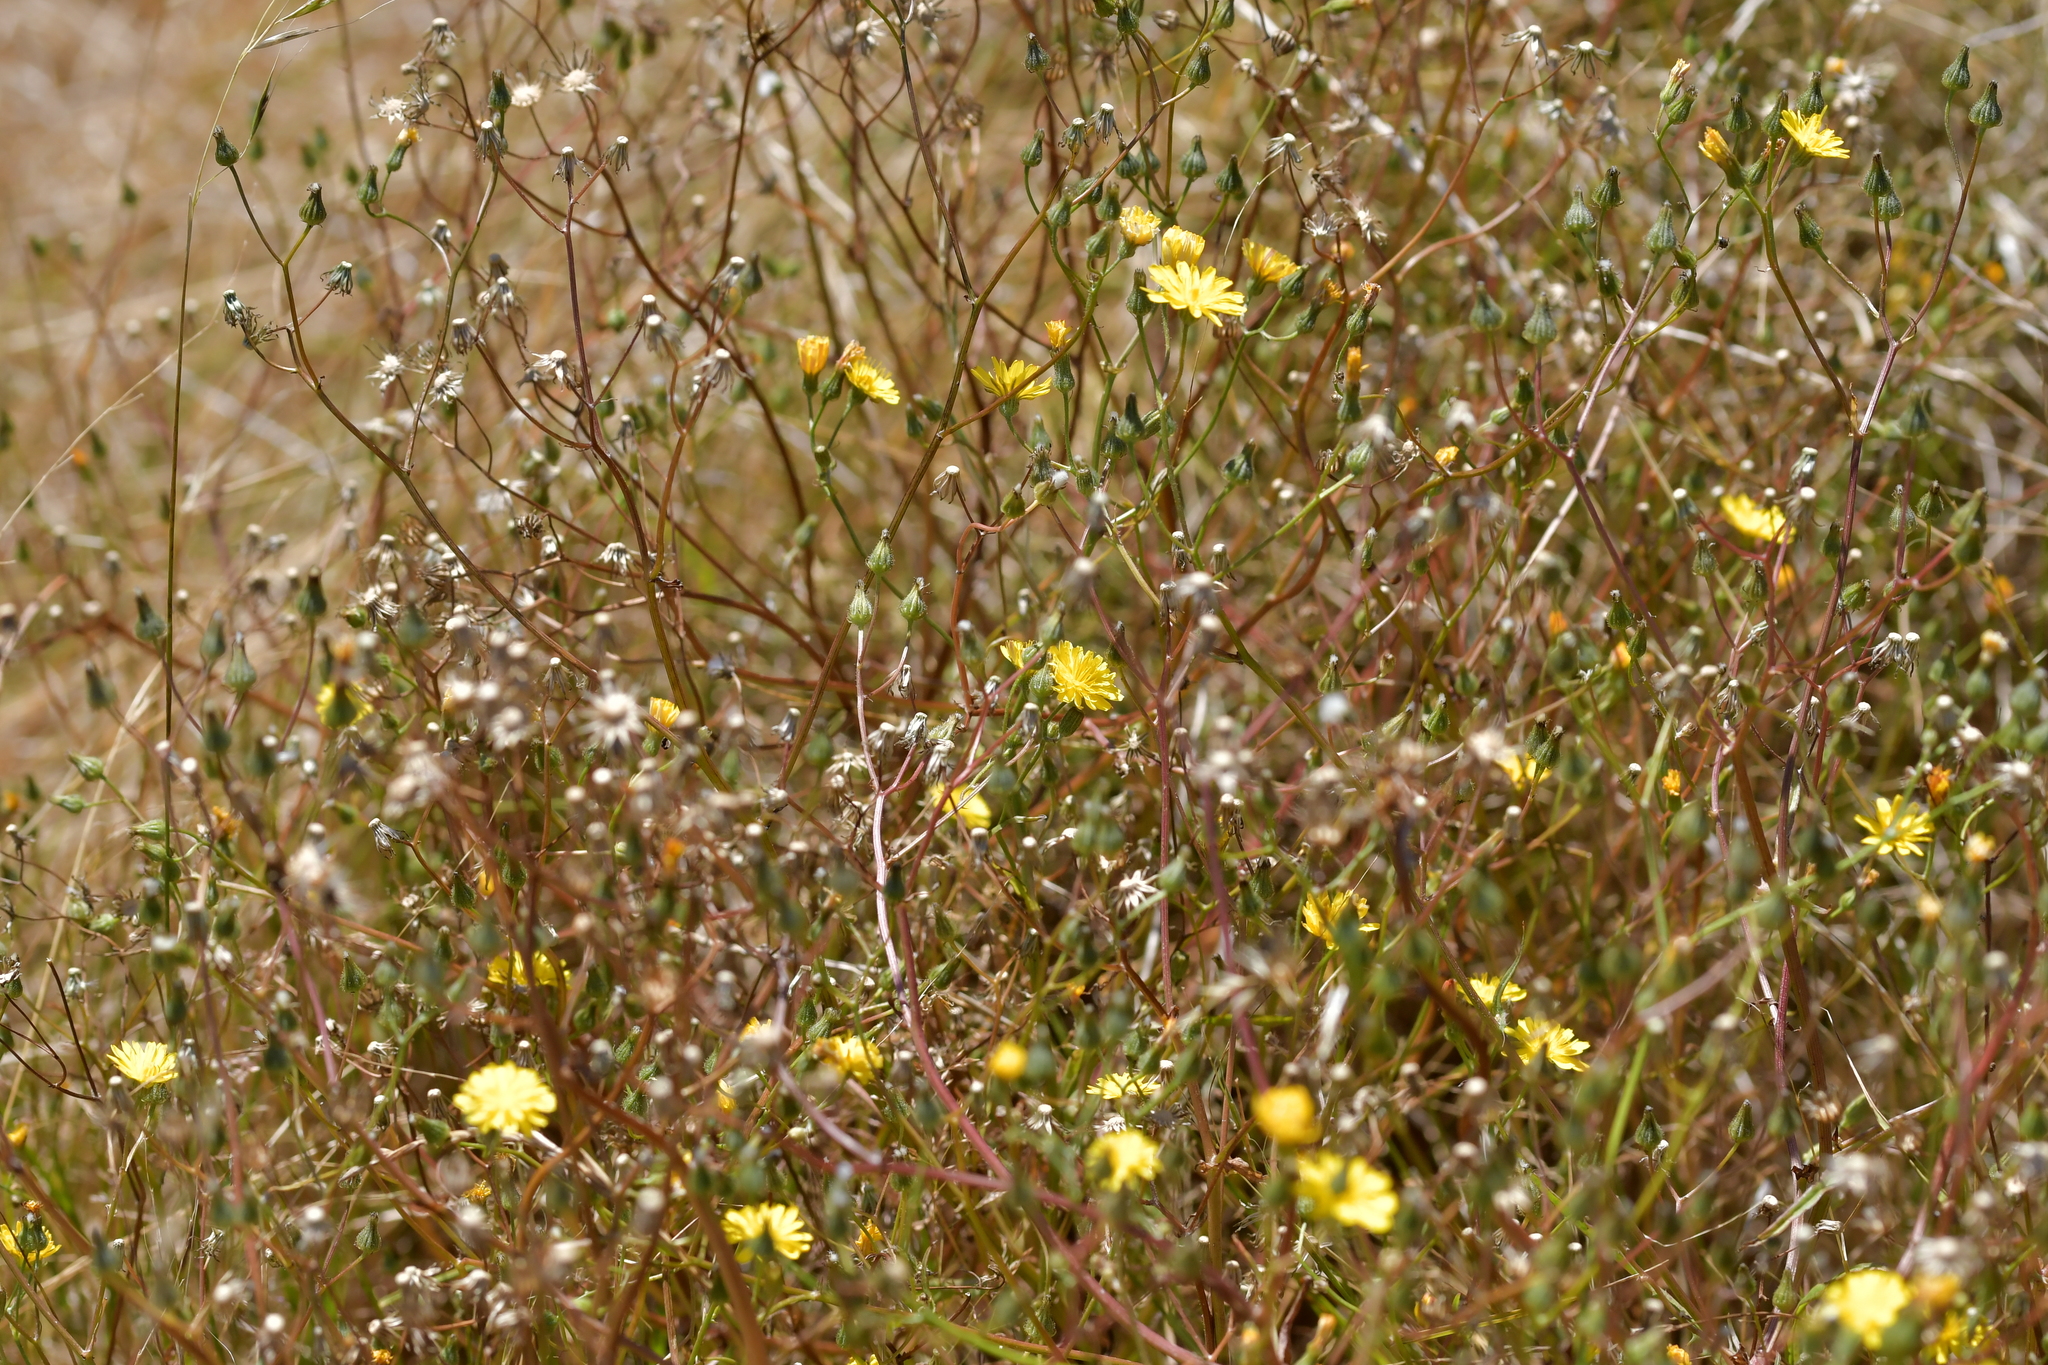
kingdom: Plantae
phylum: Tracheophyta
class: Magnoliopsida
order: Asterales
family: Asteraceae
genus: Crepis
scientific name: Crepis capillaris
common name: Smooth hawksbeard
